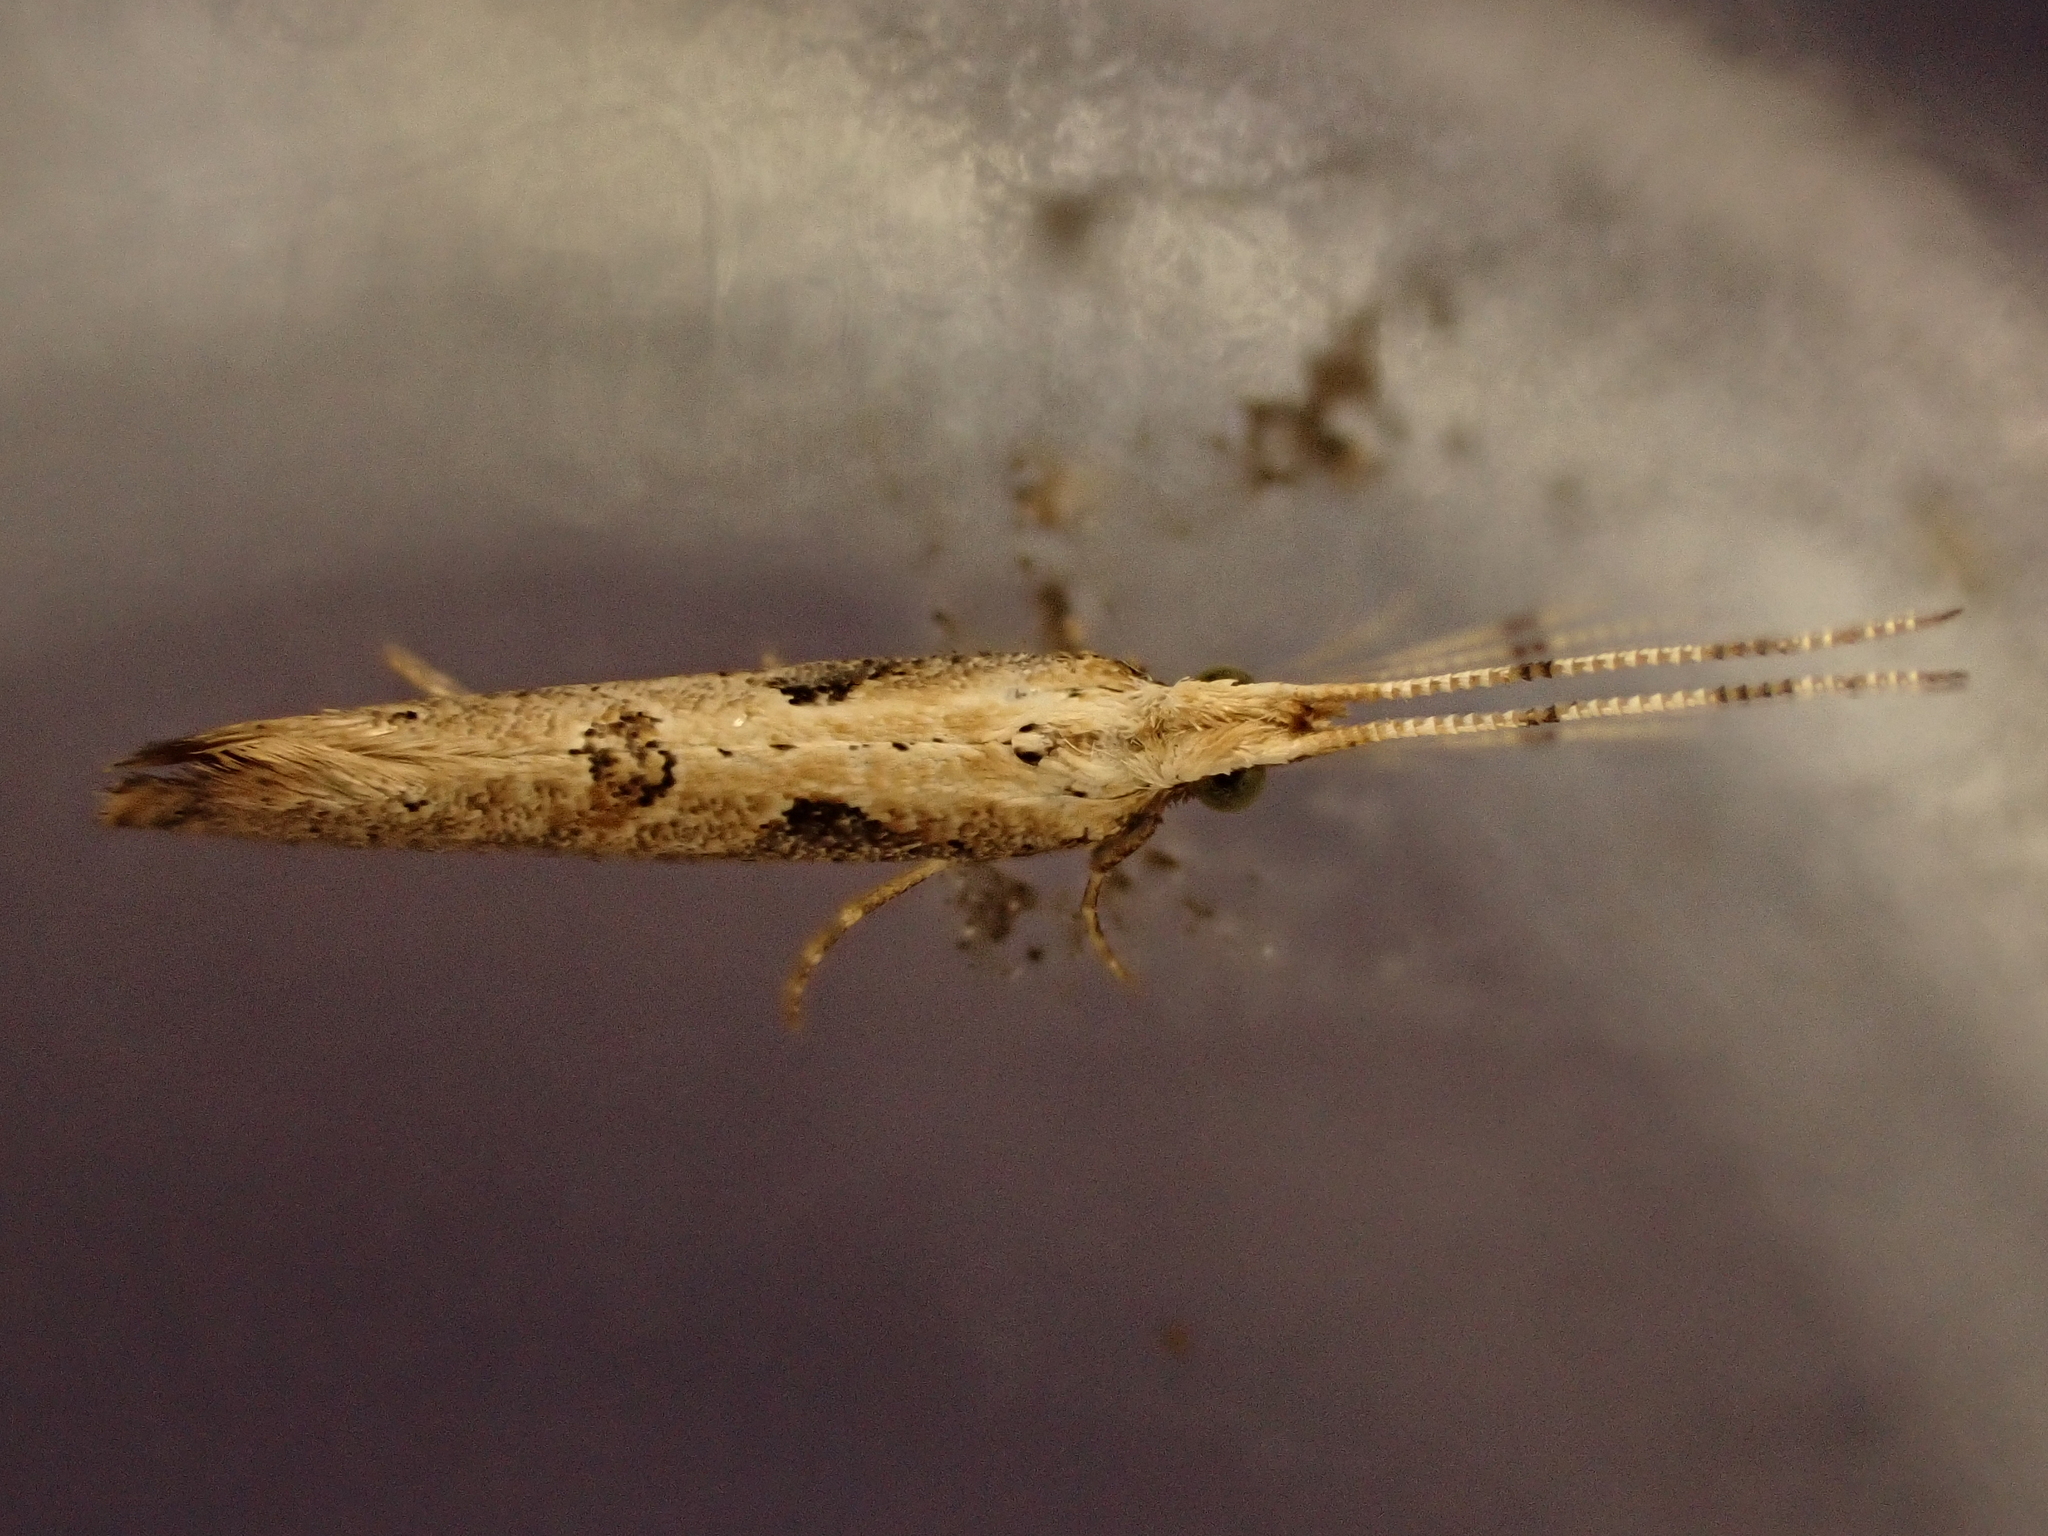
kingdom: Animalia
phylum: Arthropoda
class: Insecta
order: Lepidoptera
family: Plutellidae
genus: Leuroperna
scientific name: Leuroperna sera
